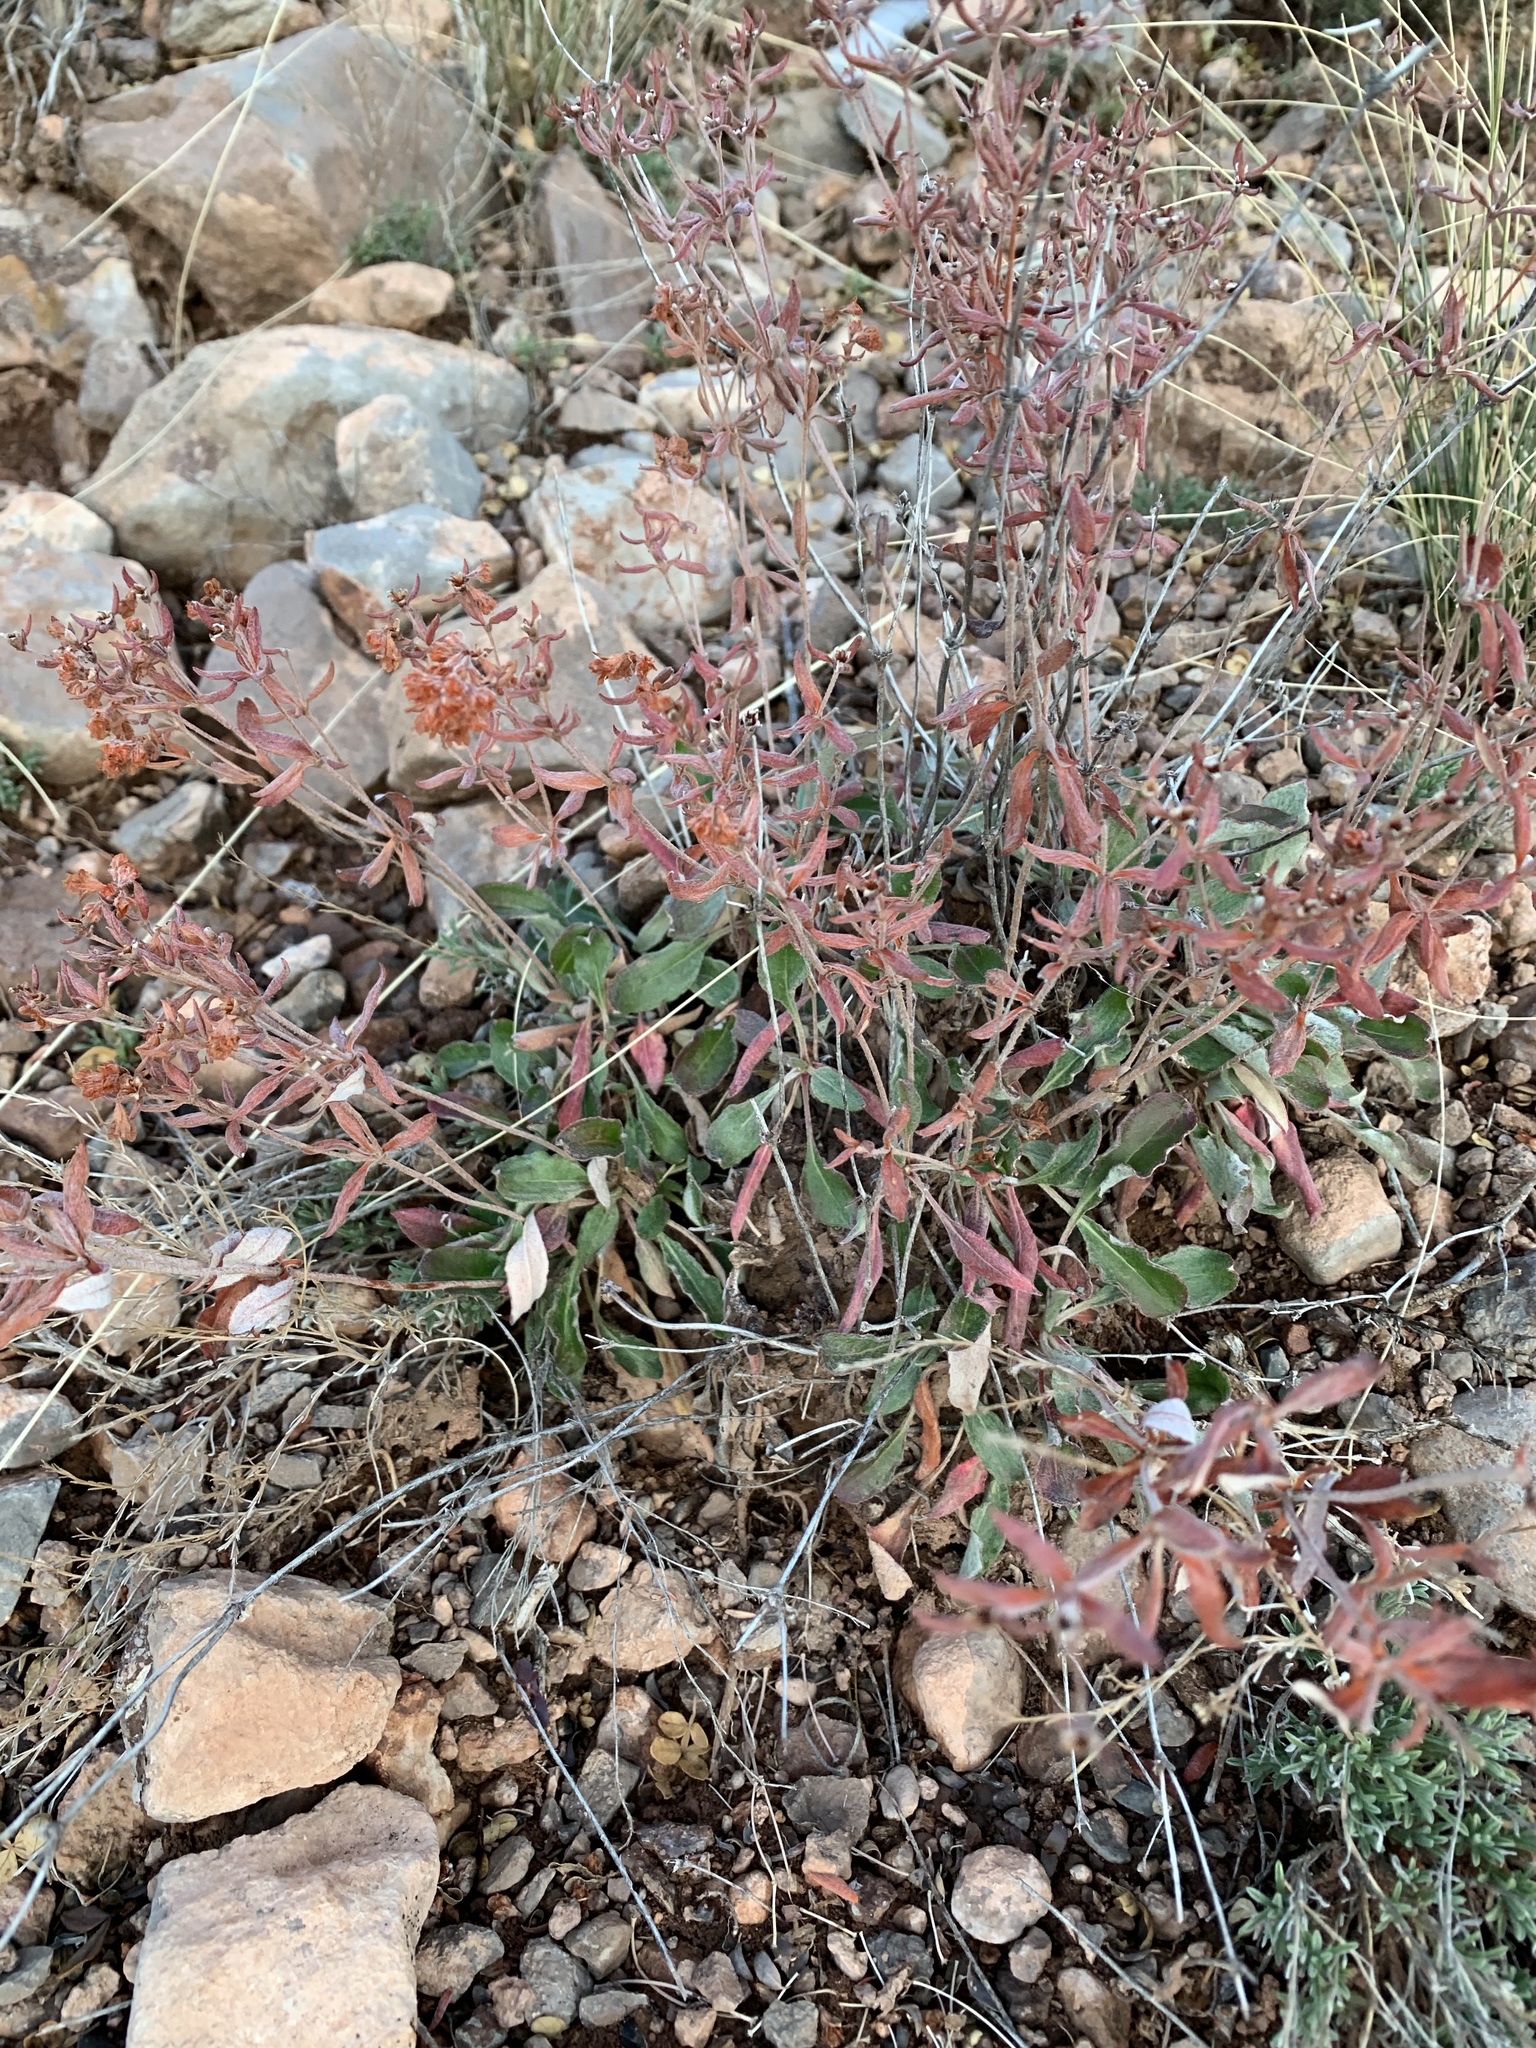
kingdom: Plantae
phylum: Tracheophyta
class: Magnoliopsida
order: Caryophyllales
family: Polygonaceae
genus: Eriogonum
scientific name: Eriogonum wootonii
